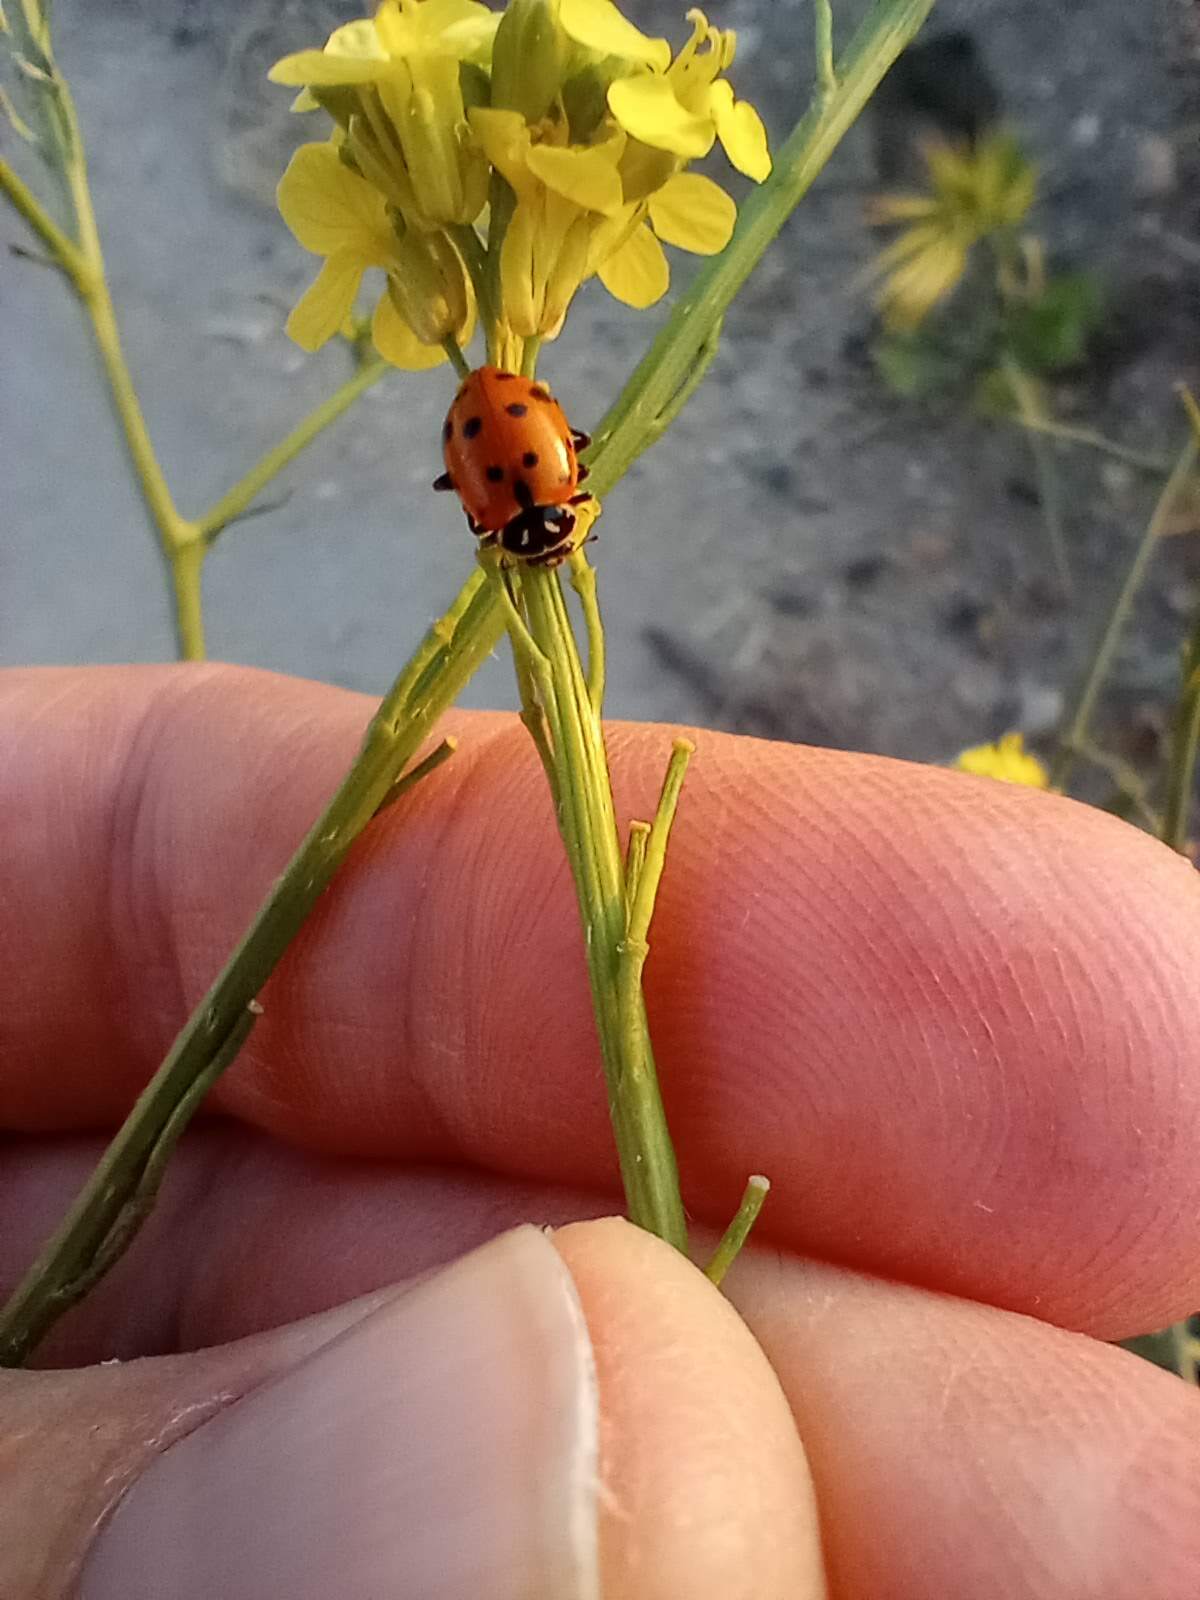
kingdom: Animalia
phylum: Arthropoda
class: Insecta
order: Coleoptera
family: Coccinellidae
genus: Hippodamia
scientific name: Hippodamia convergens
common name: Convergent lady beetle
